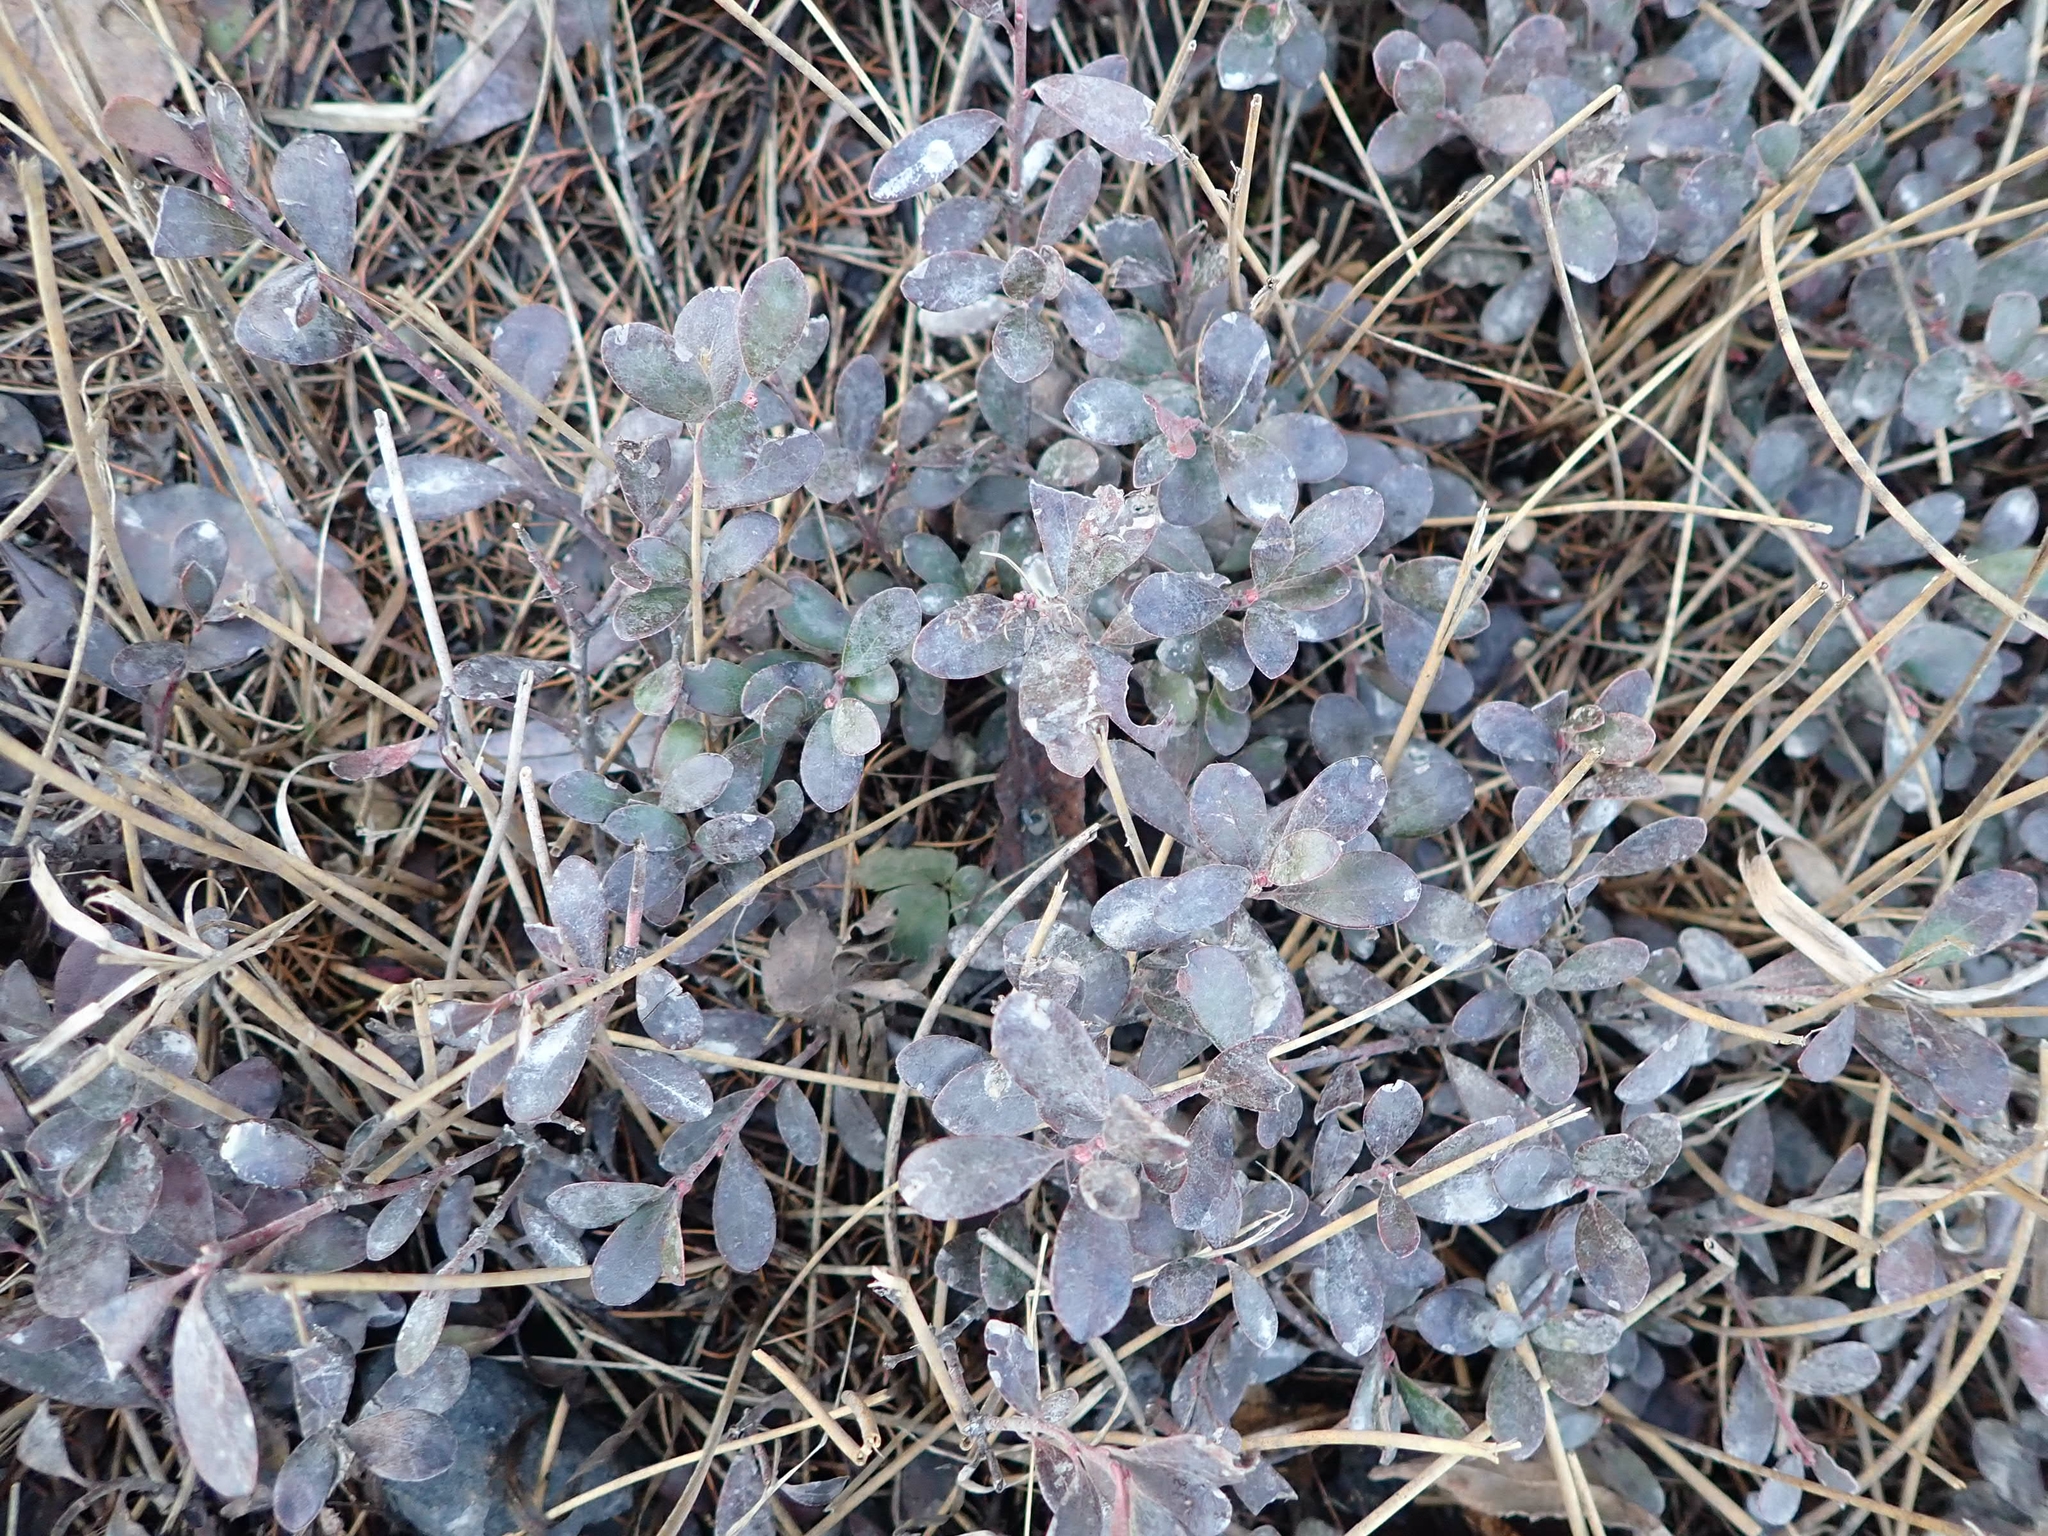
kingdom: Plantae
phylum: Tracheophyta
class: Magnoliopsida
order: Ericales
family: Ericaceae
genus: Arctostaphylos
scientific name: Arctostaphylos uva-ursi
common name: Bearberry
